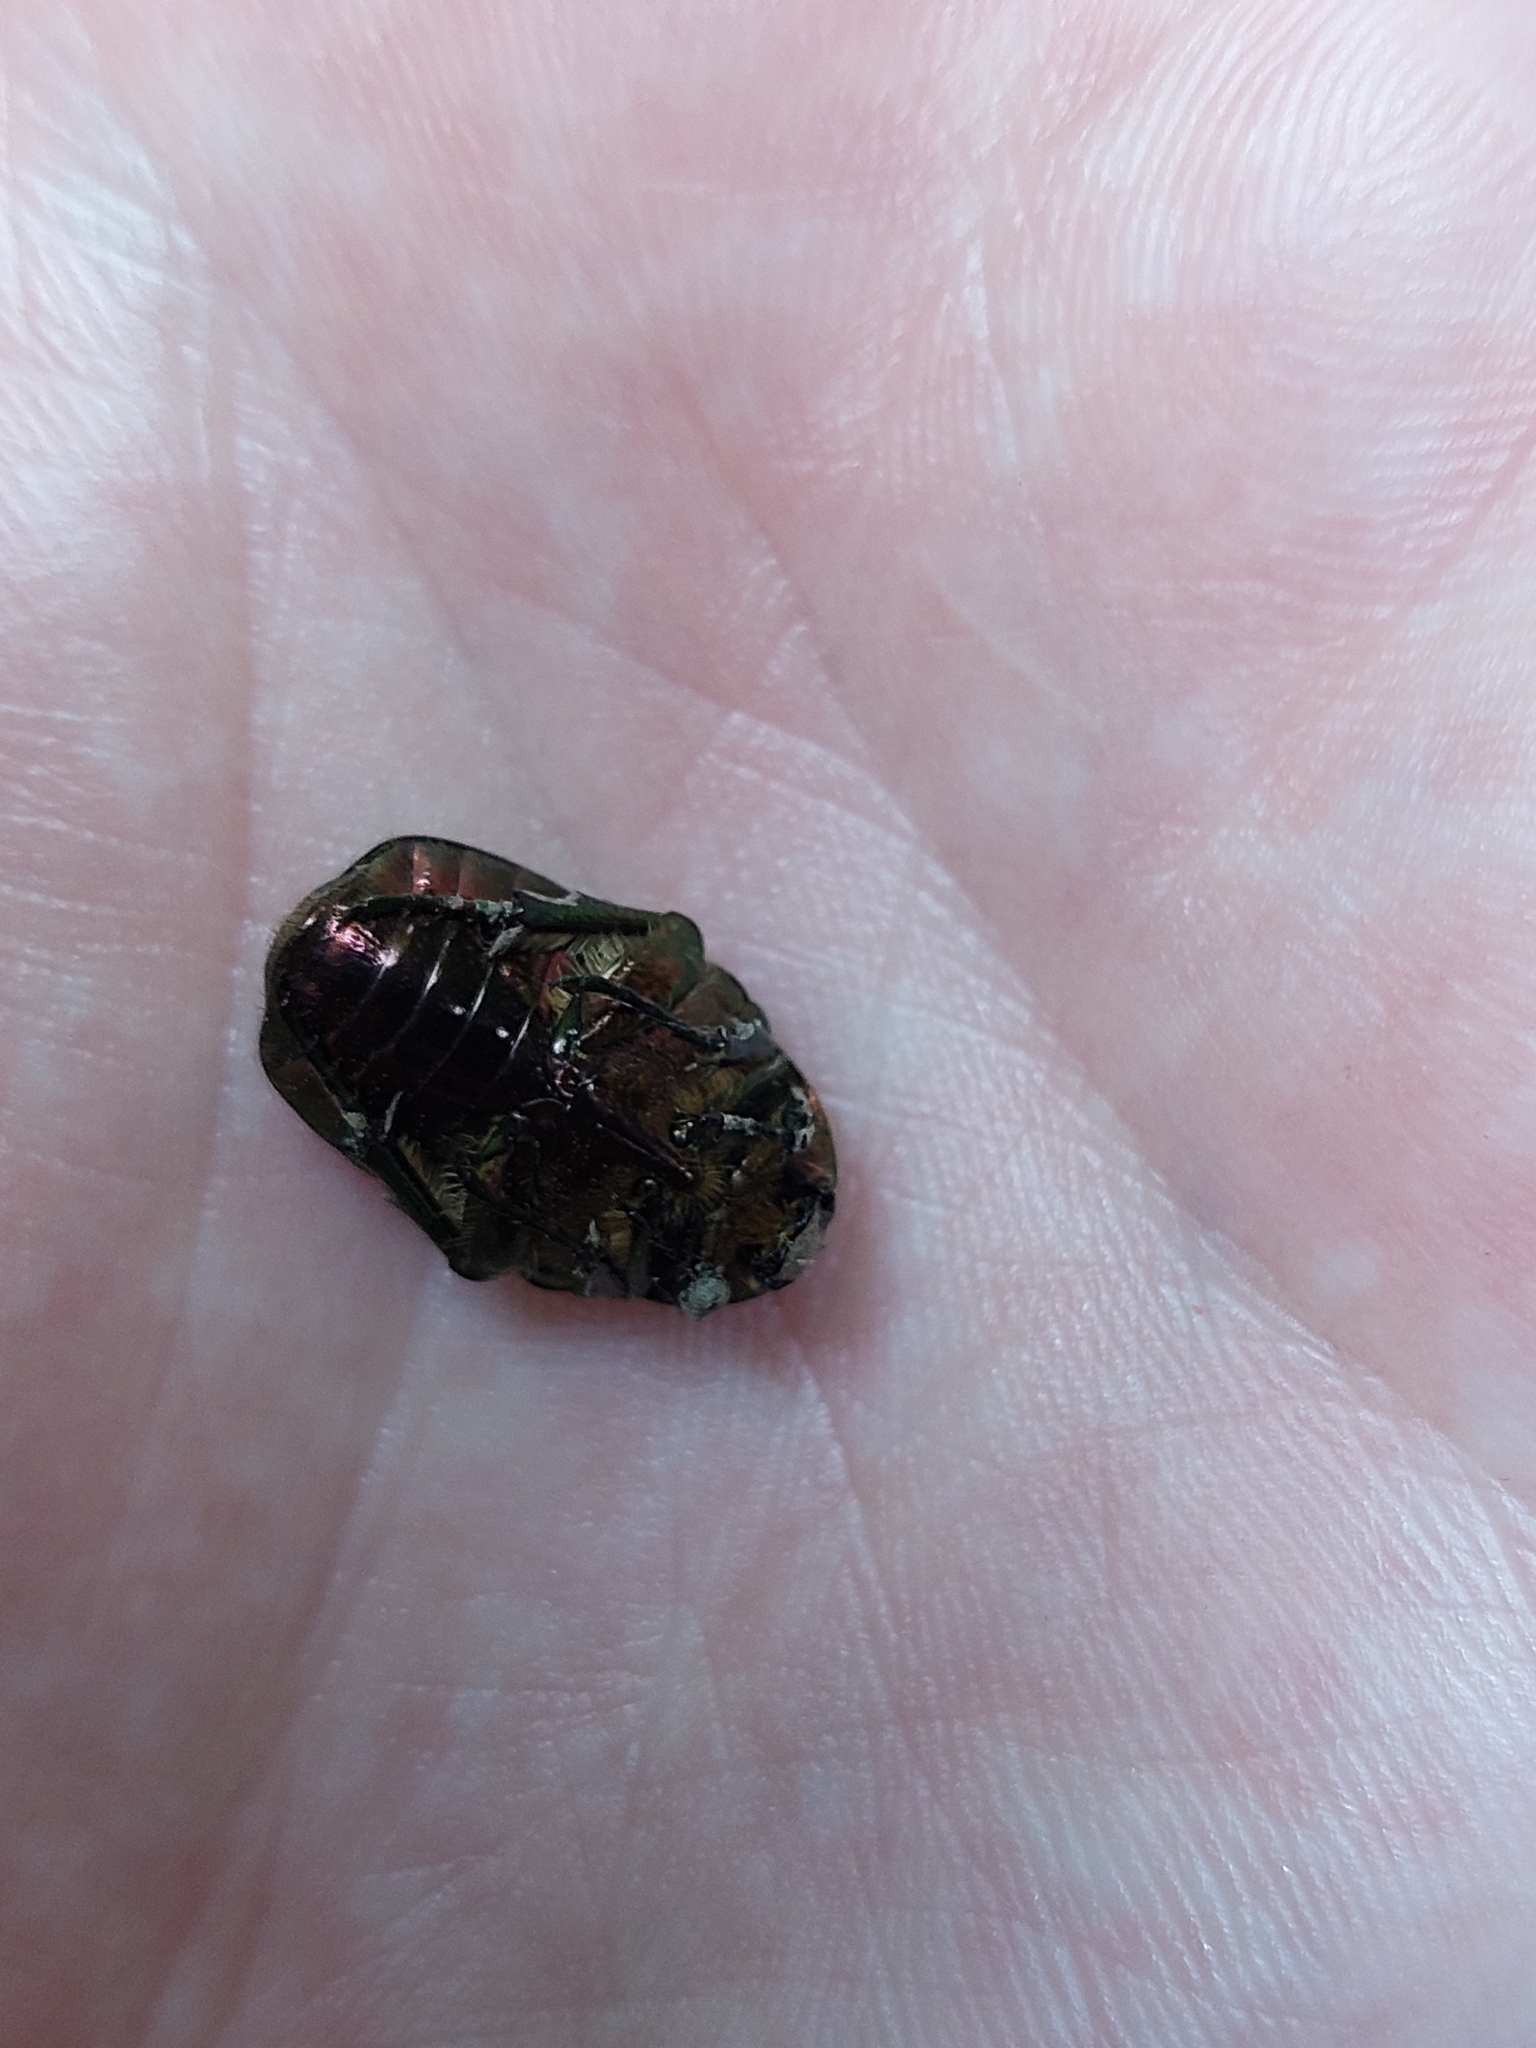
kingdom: Animalia
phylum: Arthropoda
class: Insecta
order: Coleoptera
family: Scarabaeidae
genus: Cetonia
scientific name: Cetonia aurata
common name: Rose chafer
